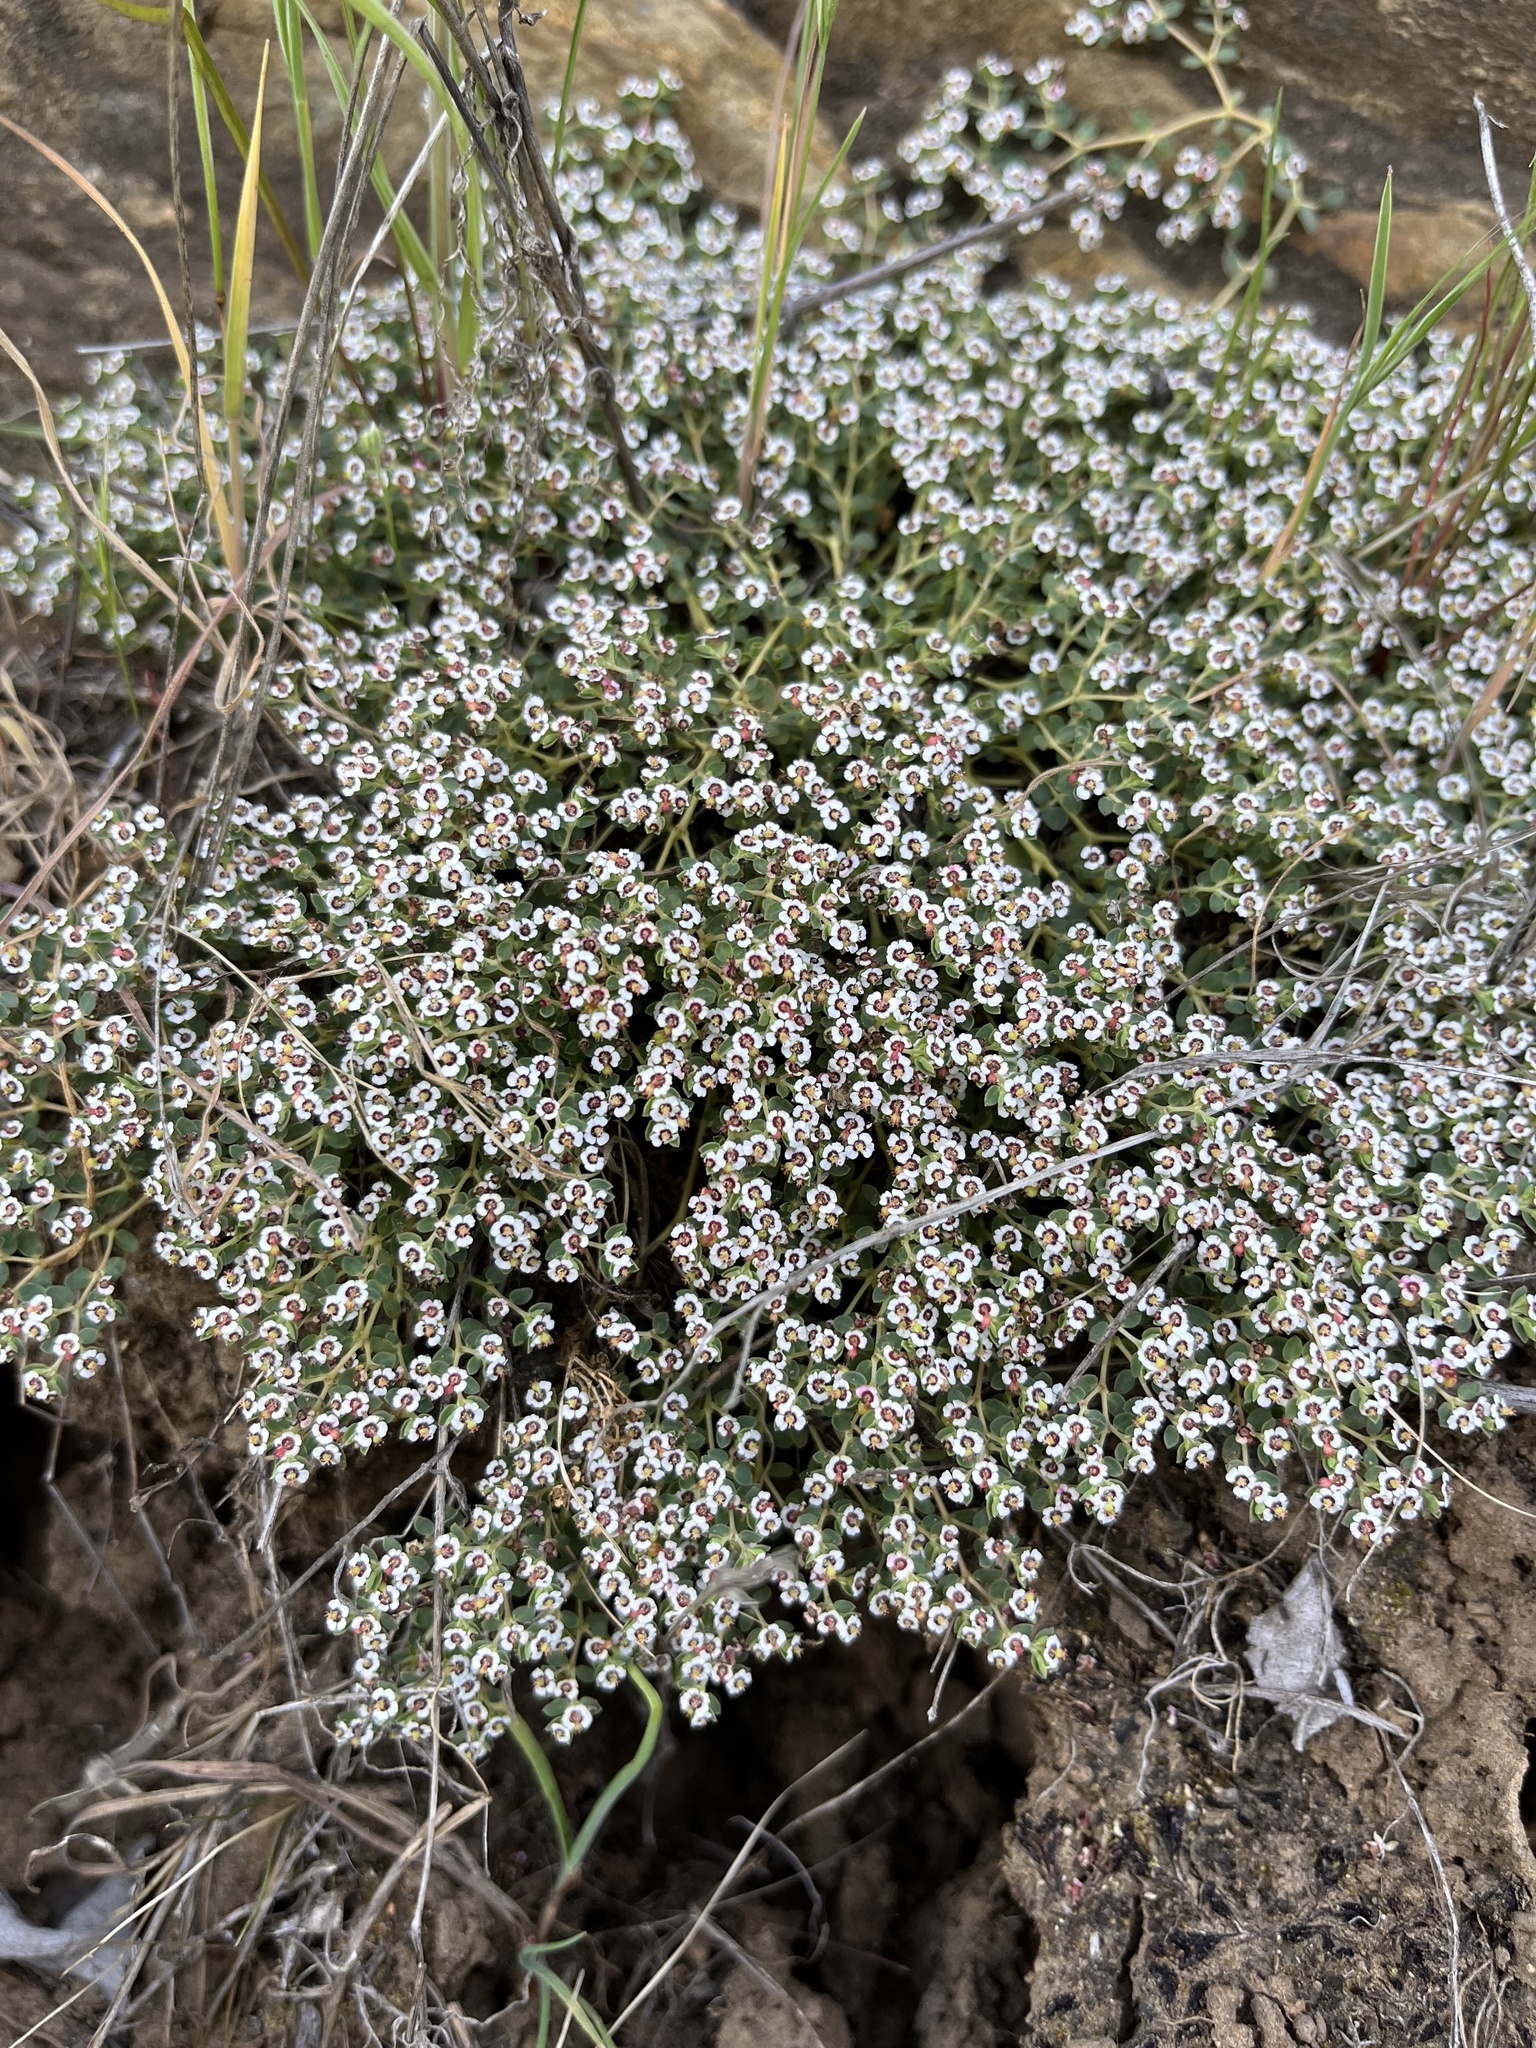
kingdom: Plantae
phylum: Tracheophyta
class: Magnoliopsida
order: Malpighiales
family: Euphorbiaceae
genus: Euphorbia
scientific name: Euphorbia polycarpa
